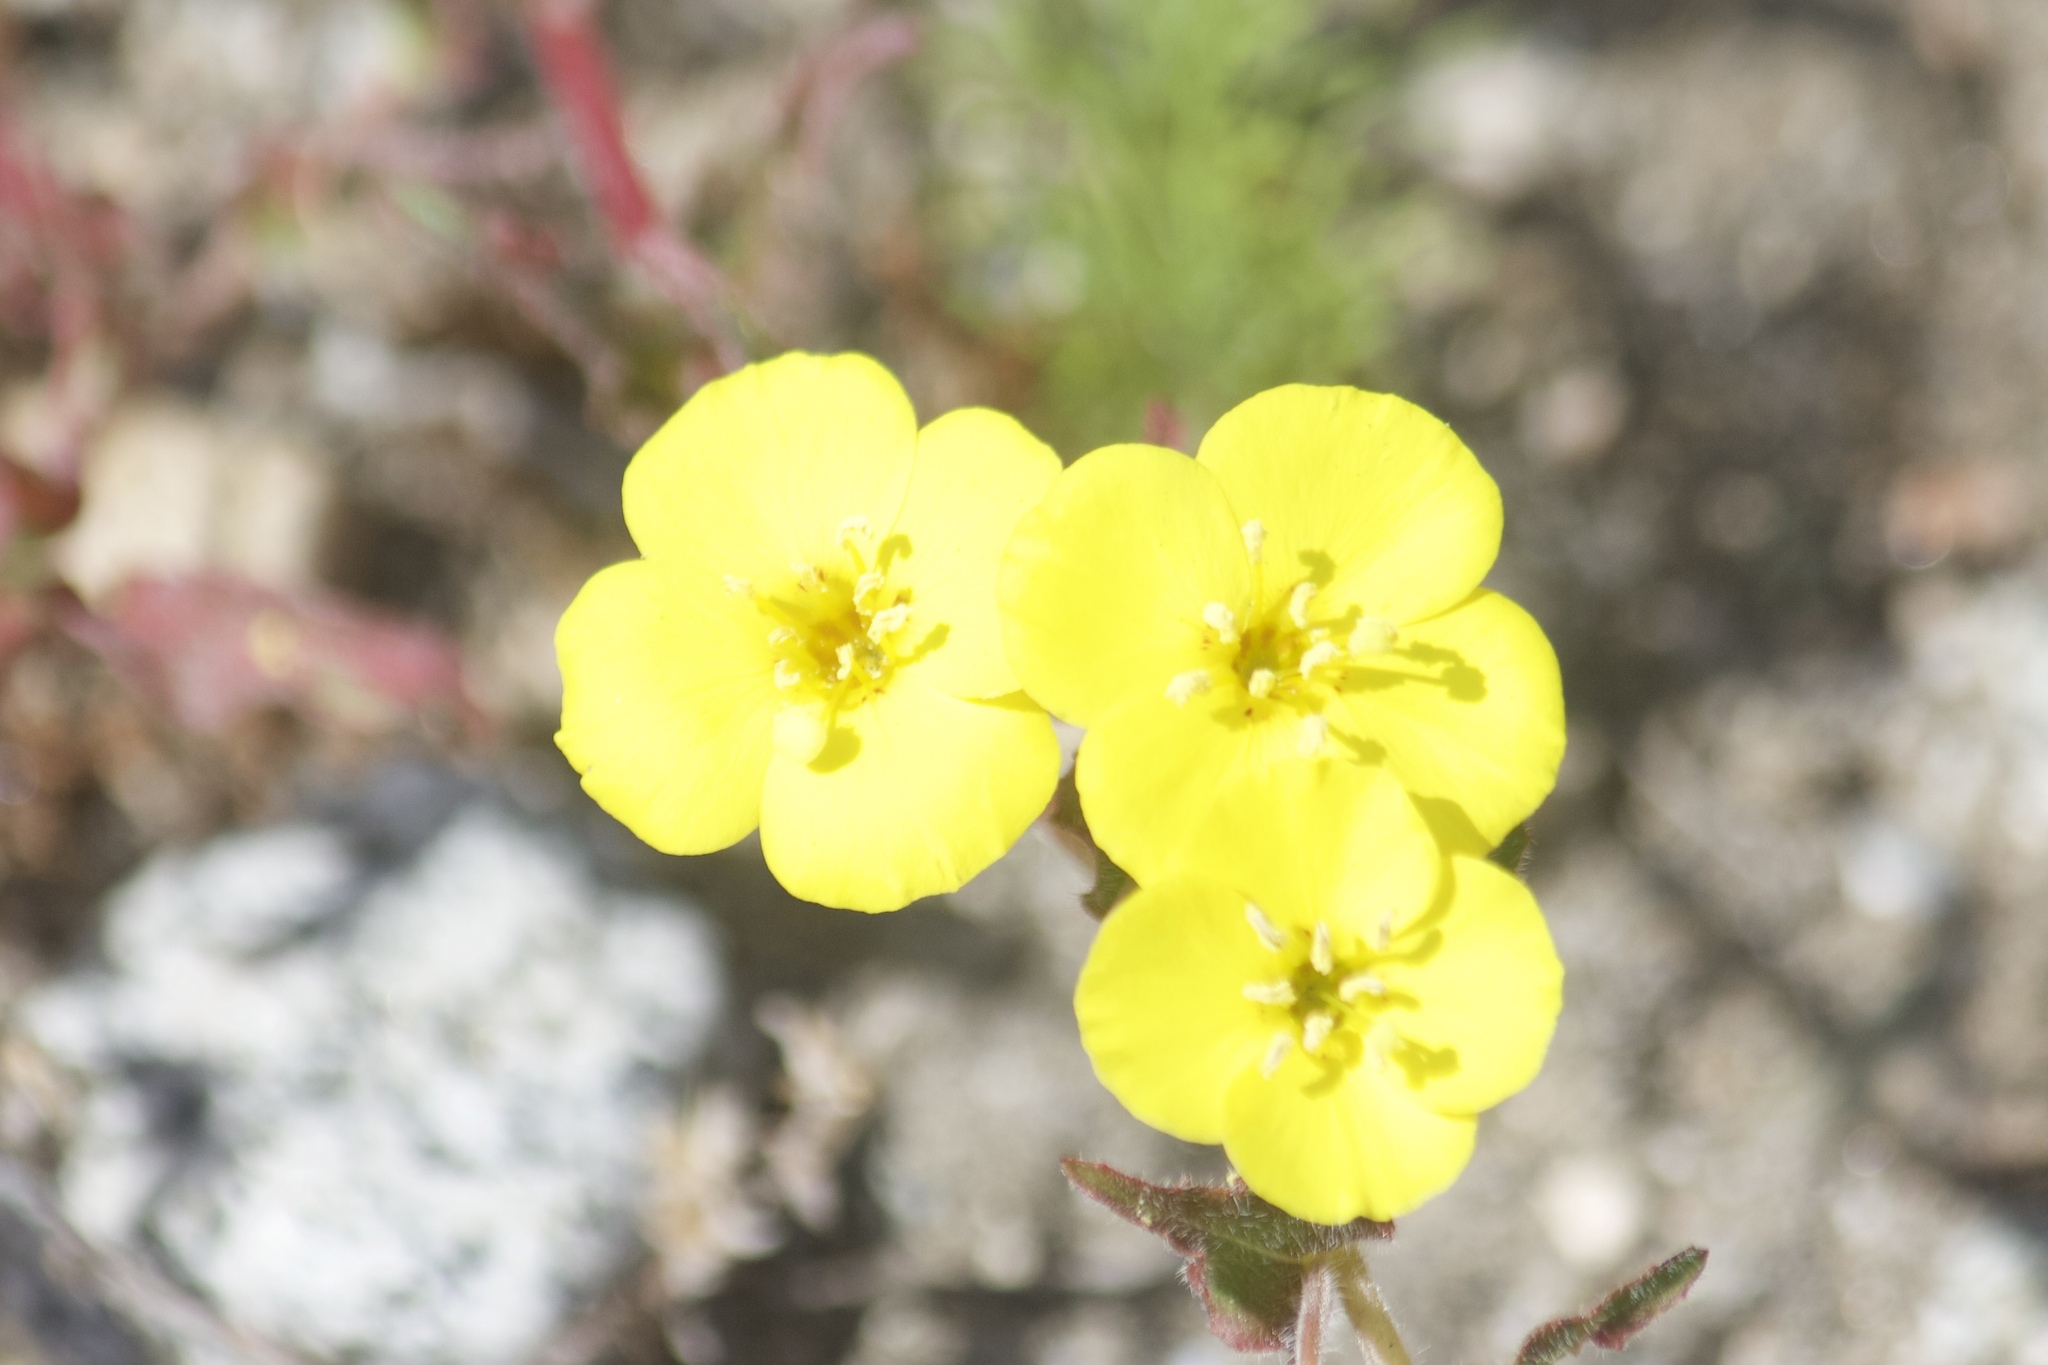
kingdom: Plantae
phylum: Tracheophyta
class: Magnoliopsida
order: Myrtales
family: Onagraceae
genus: Camissoniopsis
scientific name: Camissoniopsis bistorta
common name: Southern suncup
